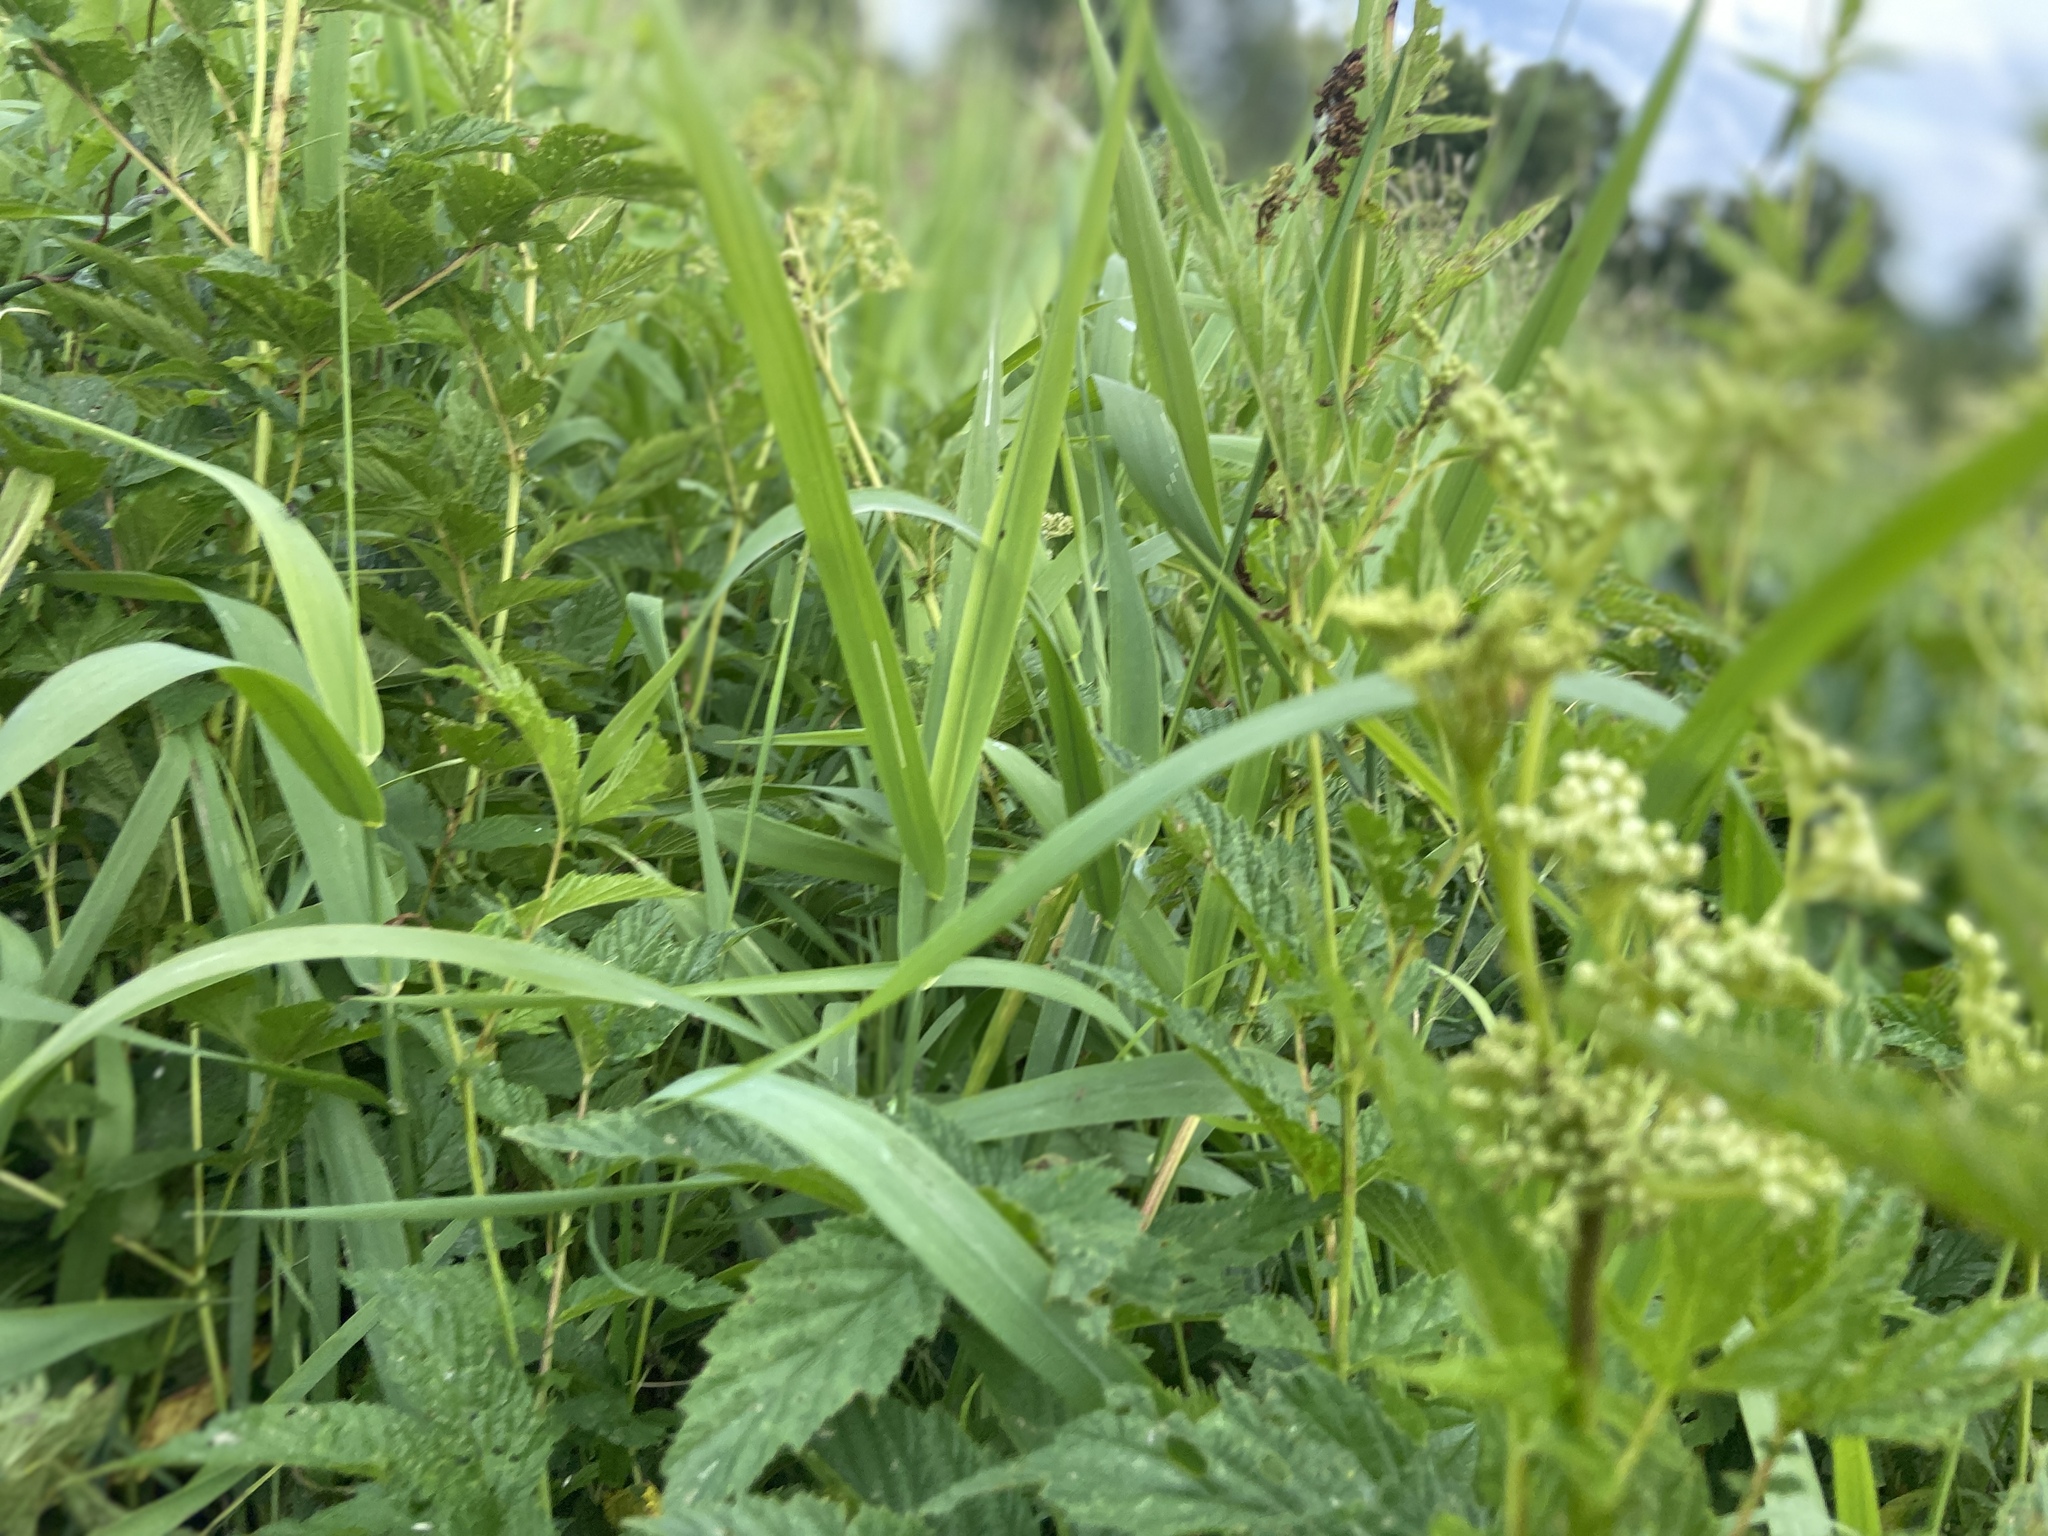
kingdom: Plantae
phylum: Tracheophyta
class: Magnoliopsida
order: Rosales
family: Rosaceae
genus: Filipendula
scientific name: Filipendula ulmaria
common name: Meadowsweet
